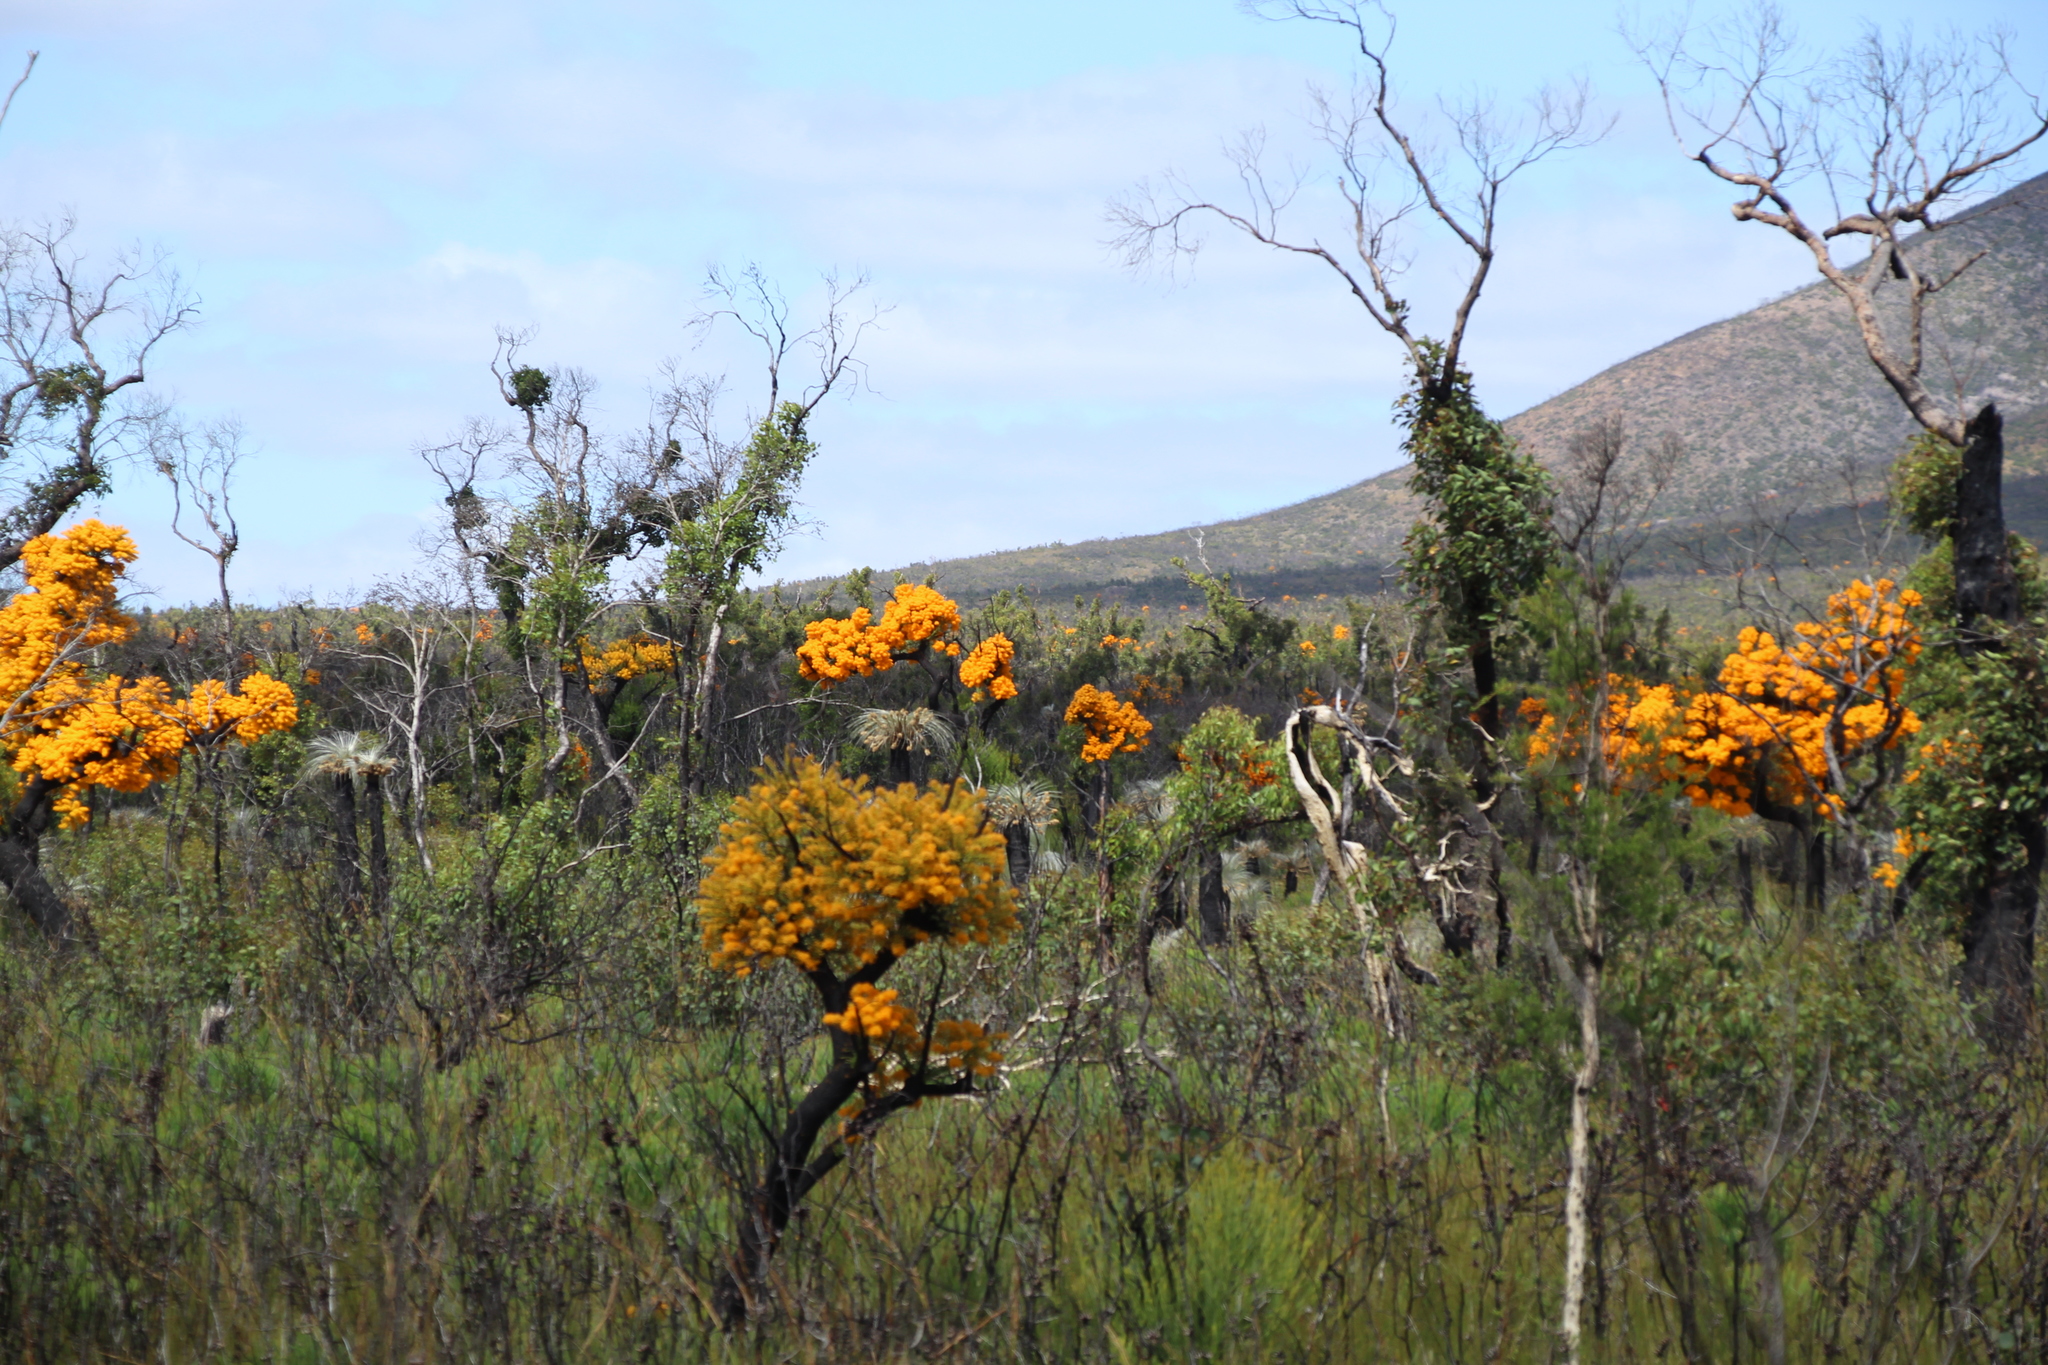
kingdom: Plantae
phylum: Tracheophyta
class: Magnoliopsida
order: Santalales
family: Loranthaceae
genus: Nuytsia
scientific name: Nuytsia floribunda
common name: Western australian christmastree
